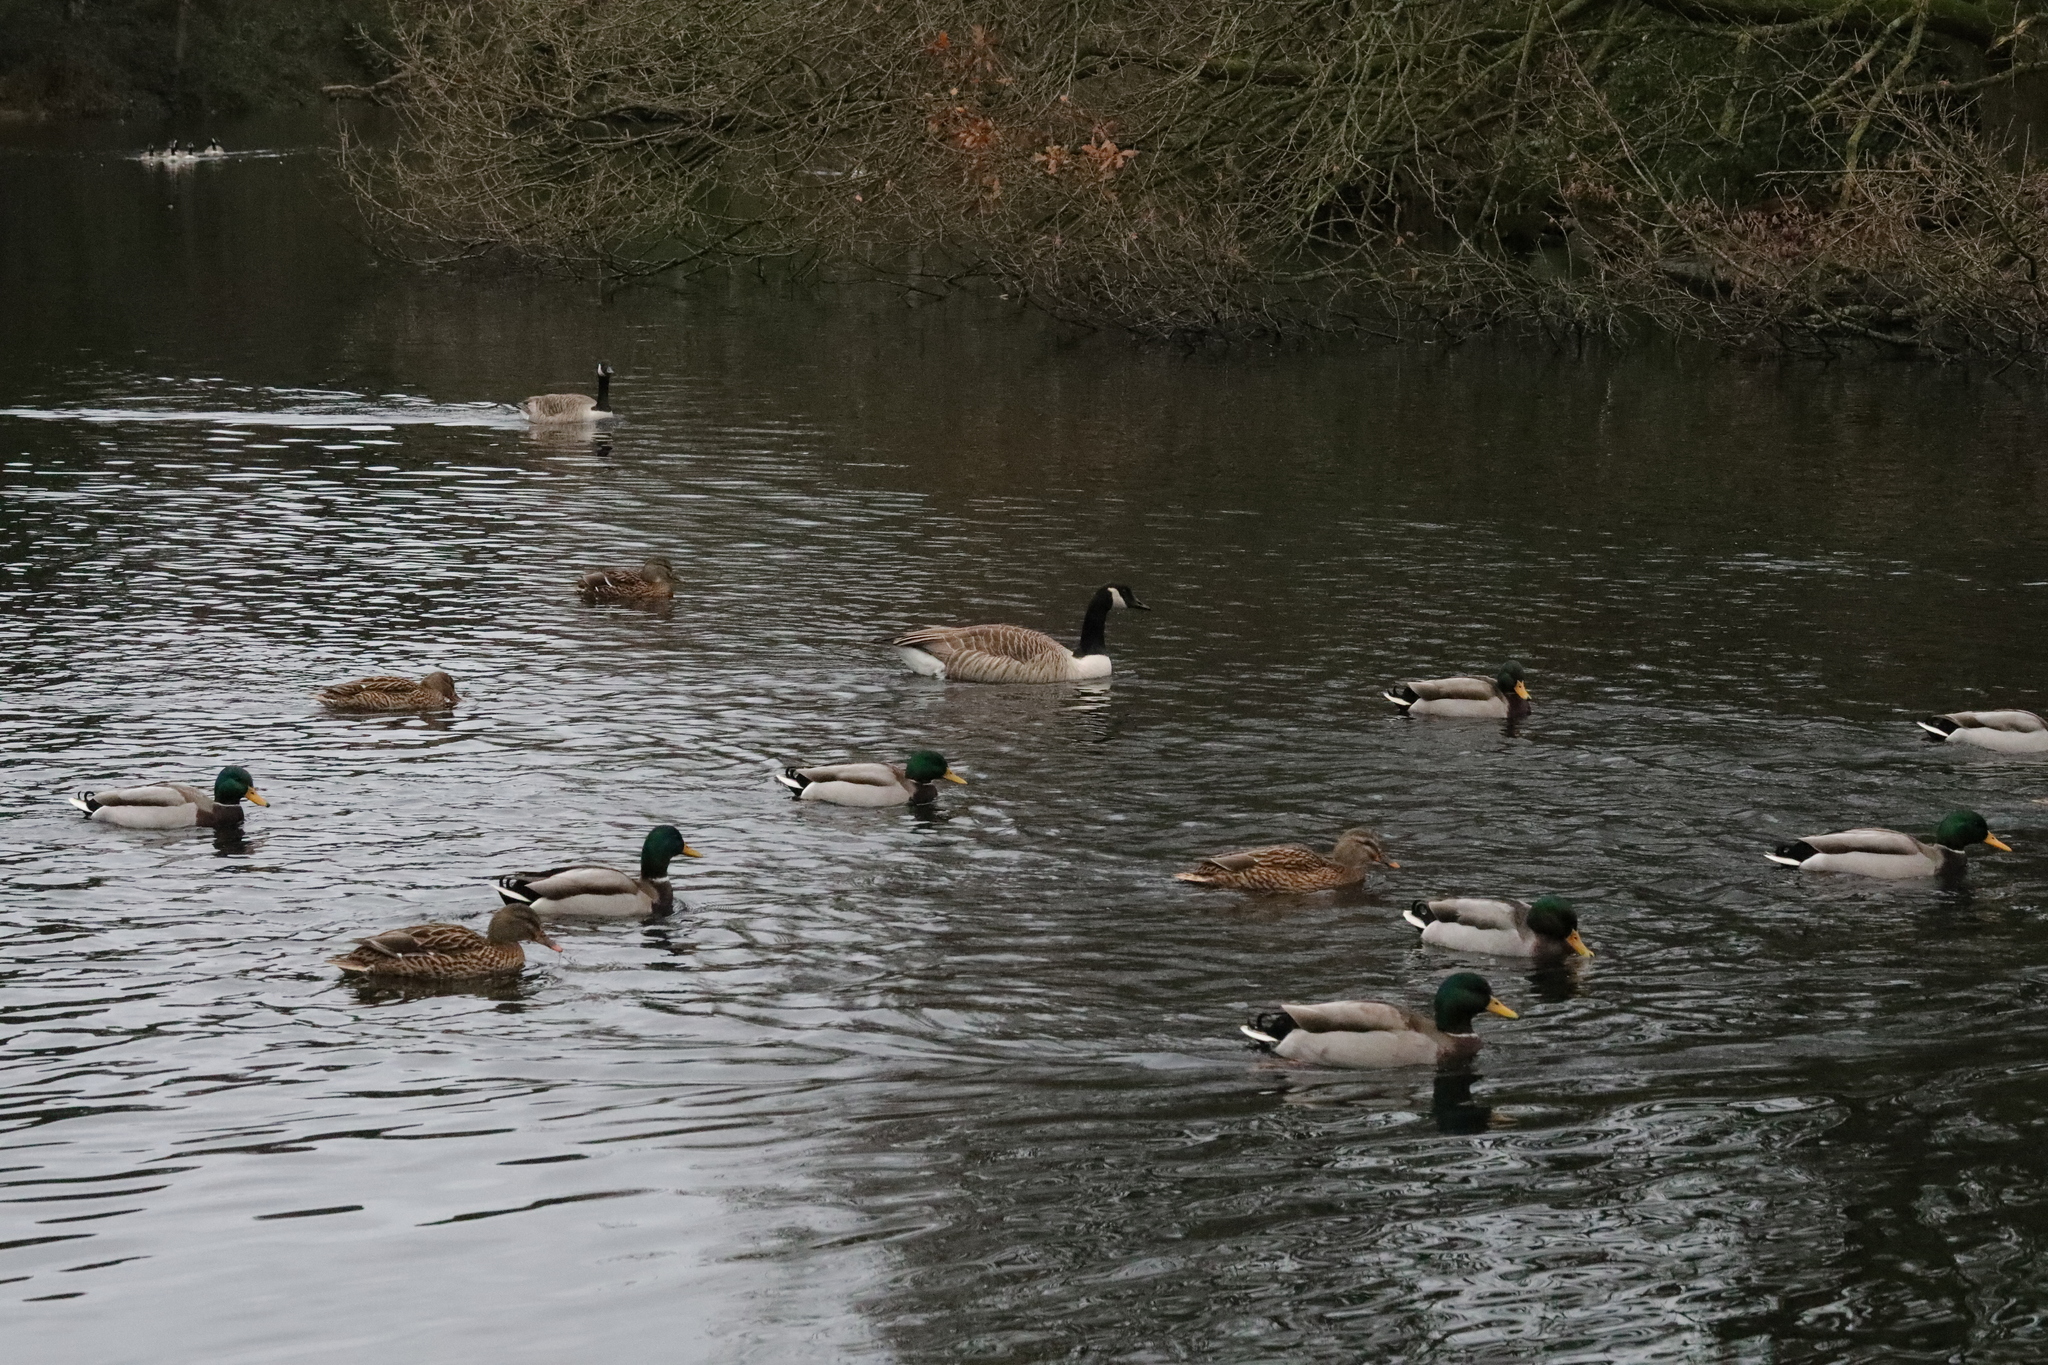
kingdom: Animalia
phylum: Chordata
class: Aves
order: Anseriformes
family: Anatidae
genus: Branta
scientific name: Branta canadensis
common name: Canada goose
